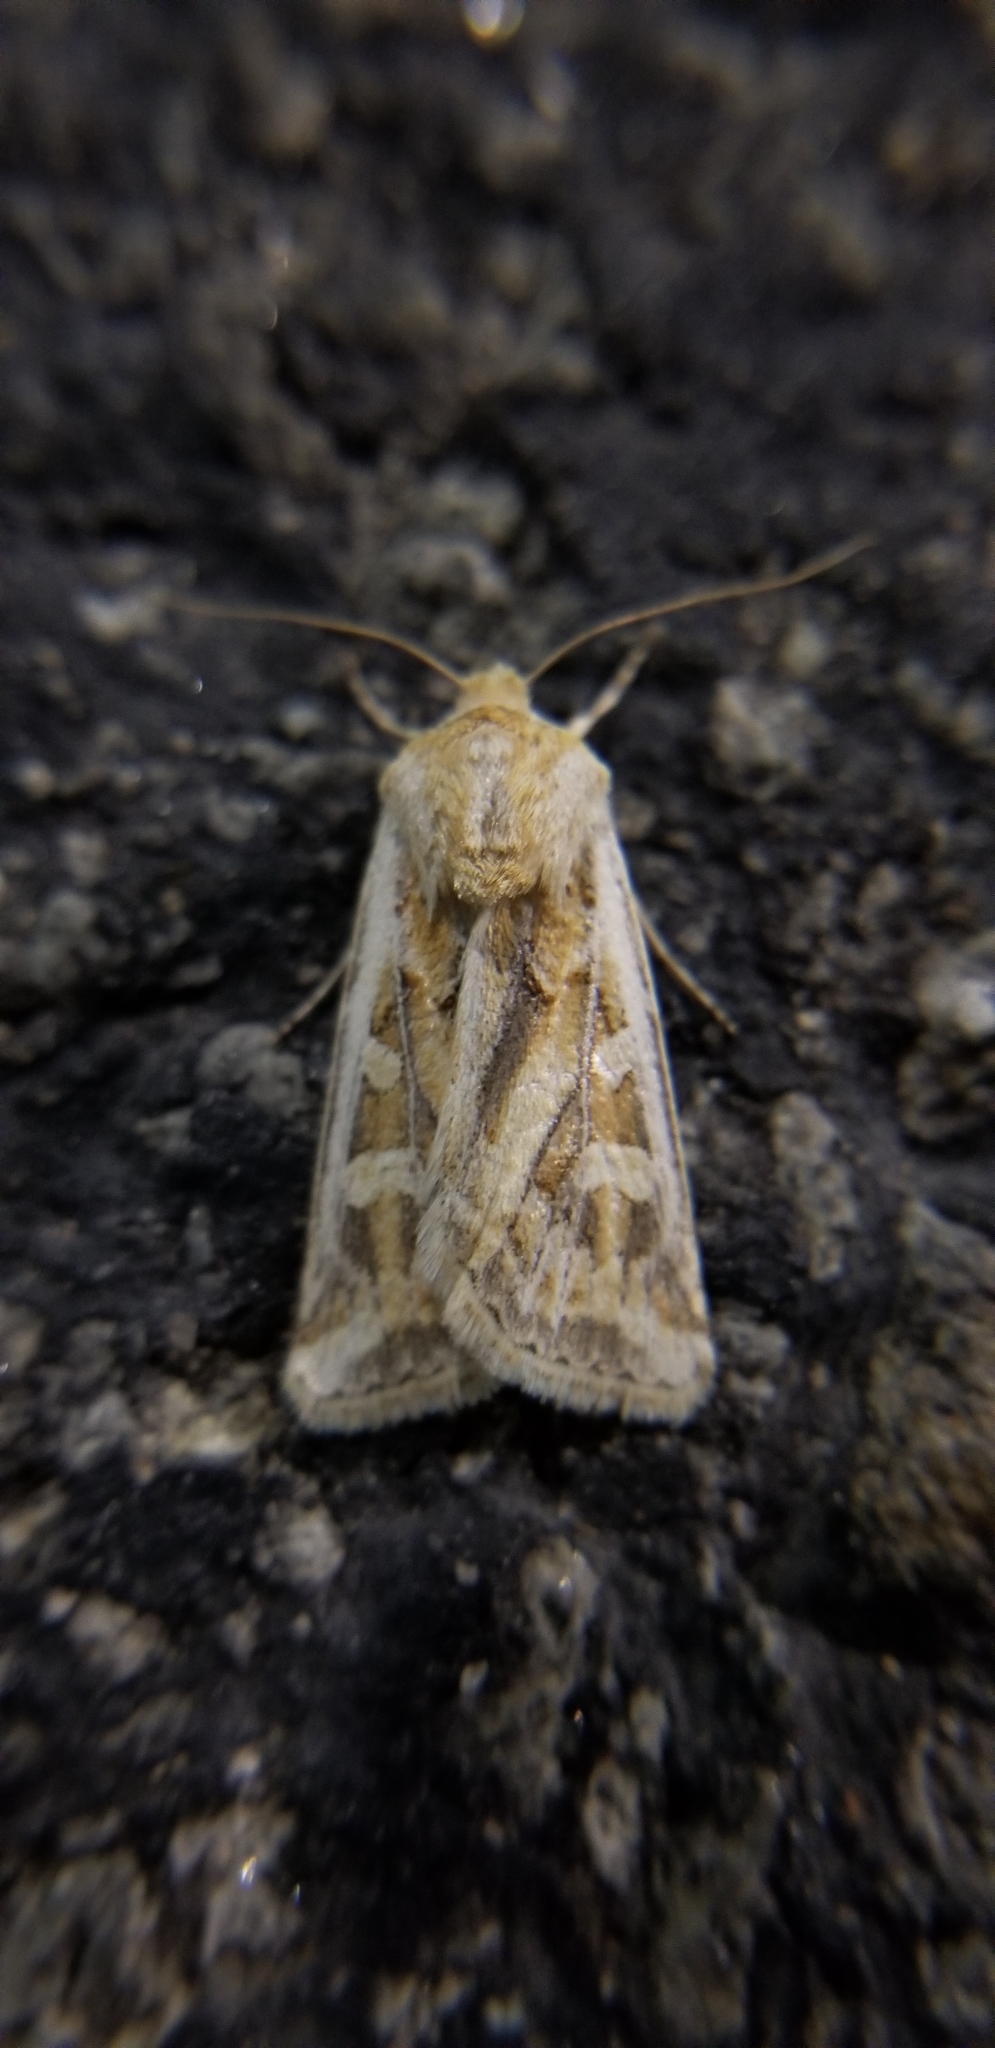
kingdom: Animalia
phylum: Arthropoda
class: Insecta
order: Lepidoptera
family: Noctuidae
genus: Euxoa
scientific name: Euxoa auxiliaris
